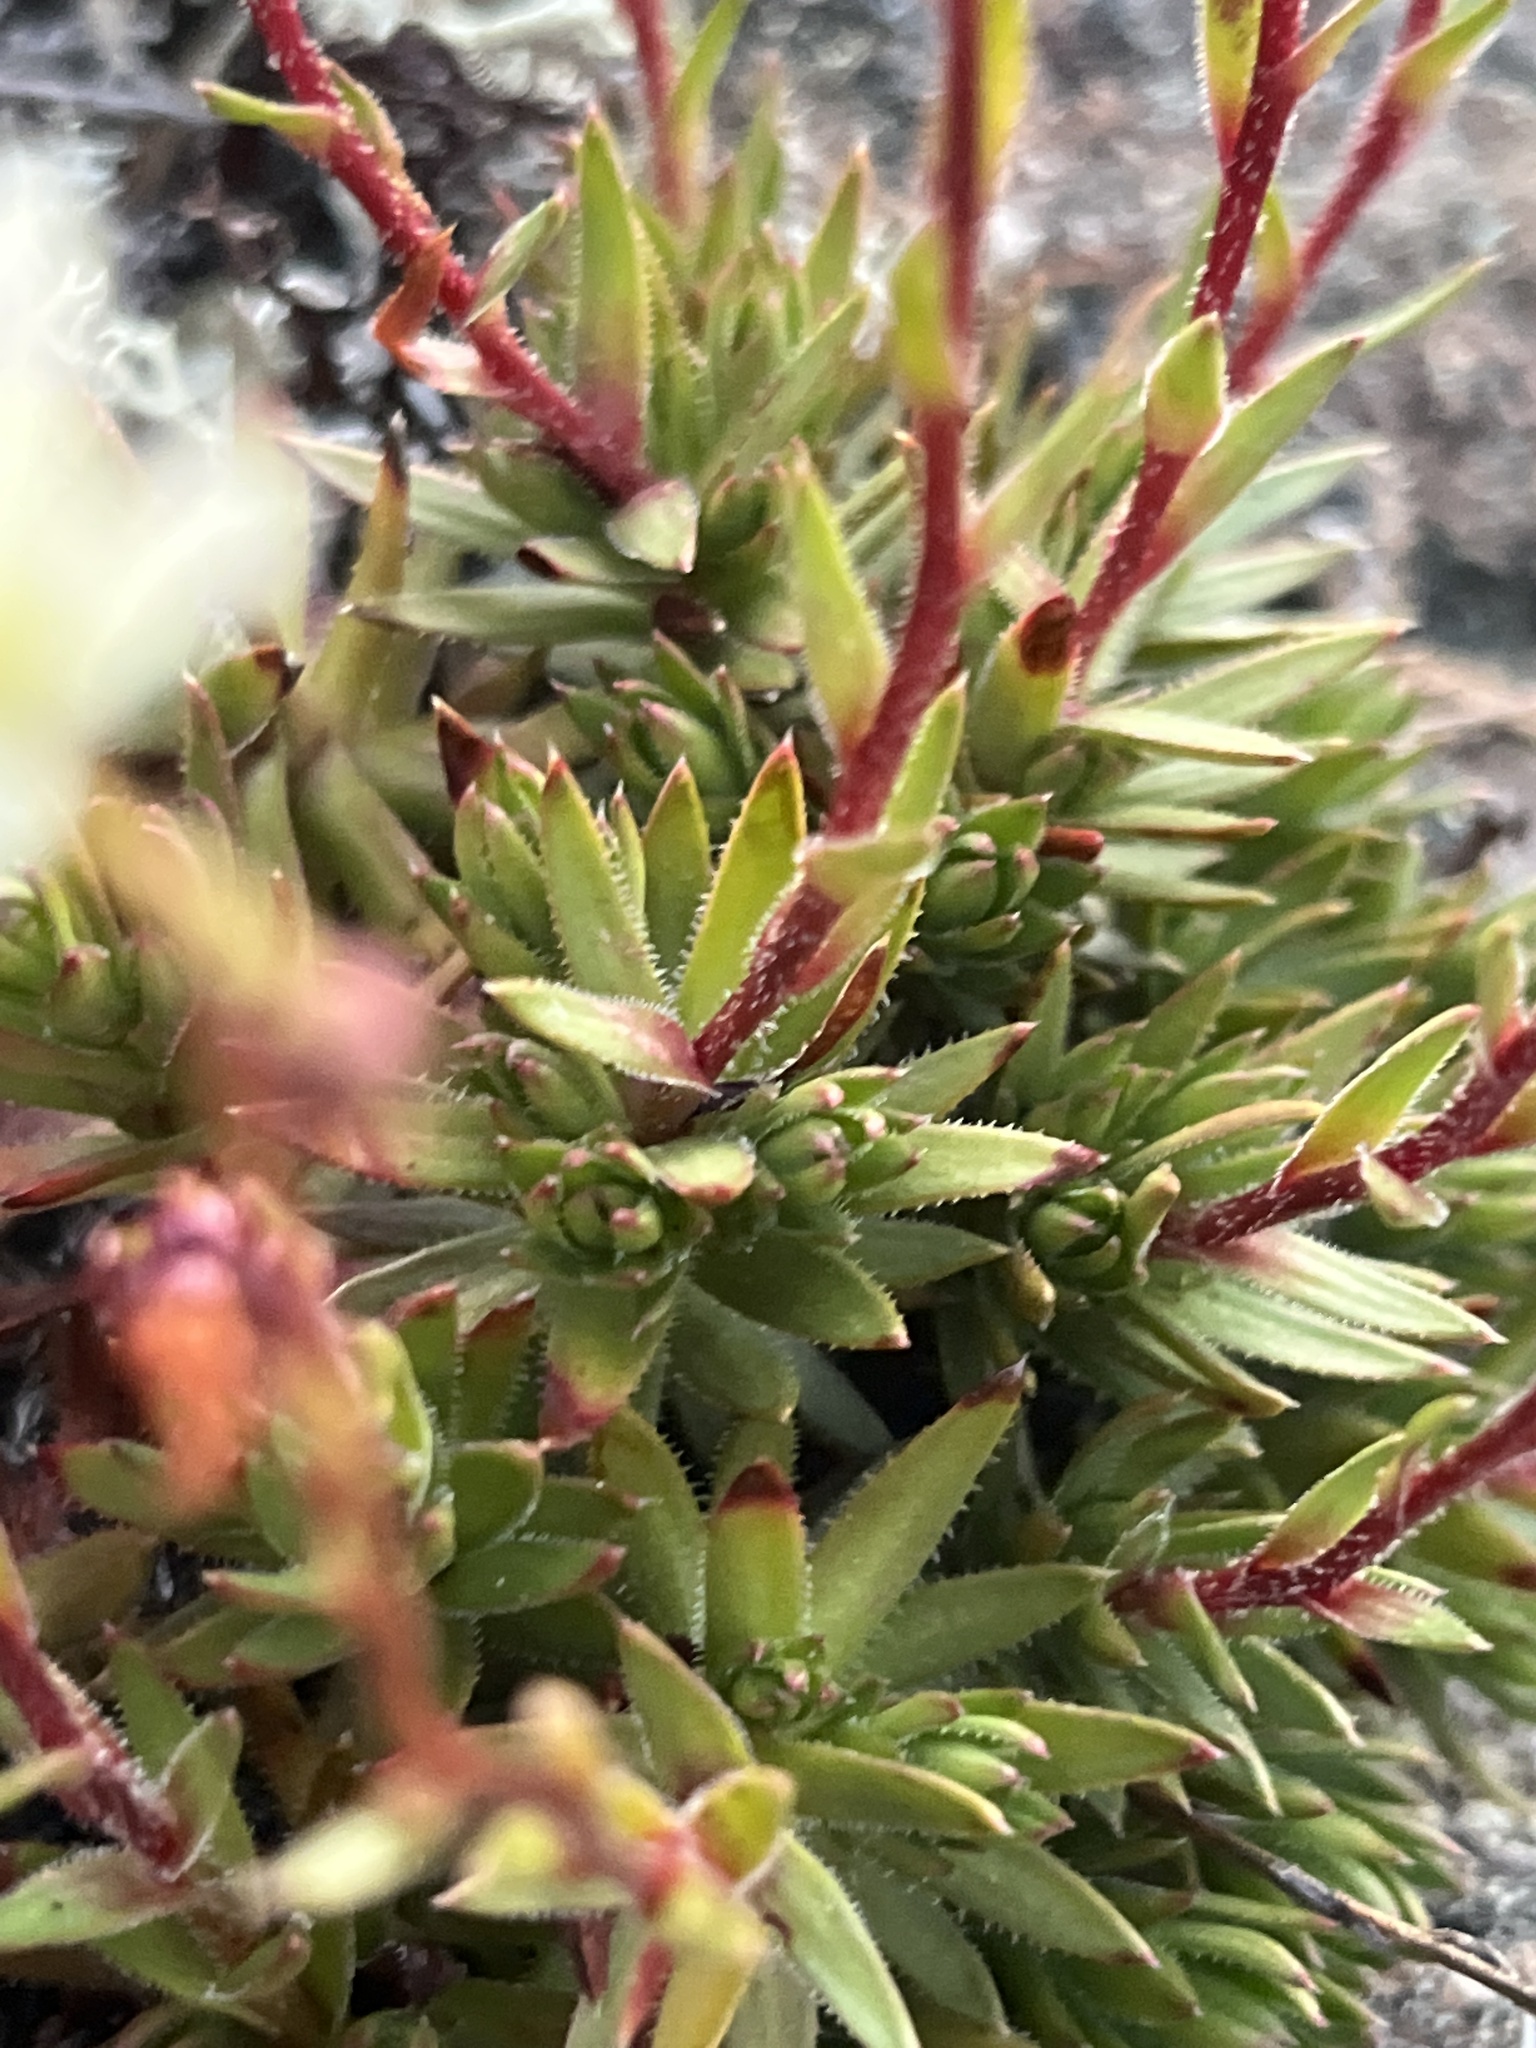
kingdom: Plantae
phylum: Tracheophyta
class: Magnoliopsida
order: Saxifragales
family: Saxifragaceae
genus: Saxifraga
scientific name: Saxifraga bronchialis
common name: Matted saxifrage
